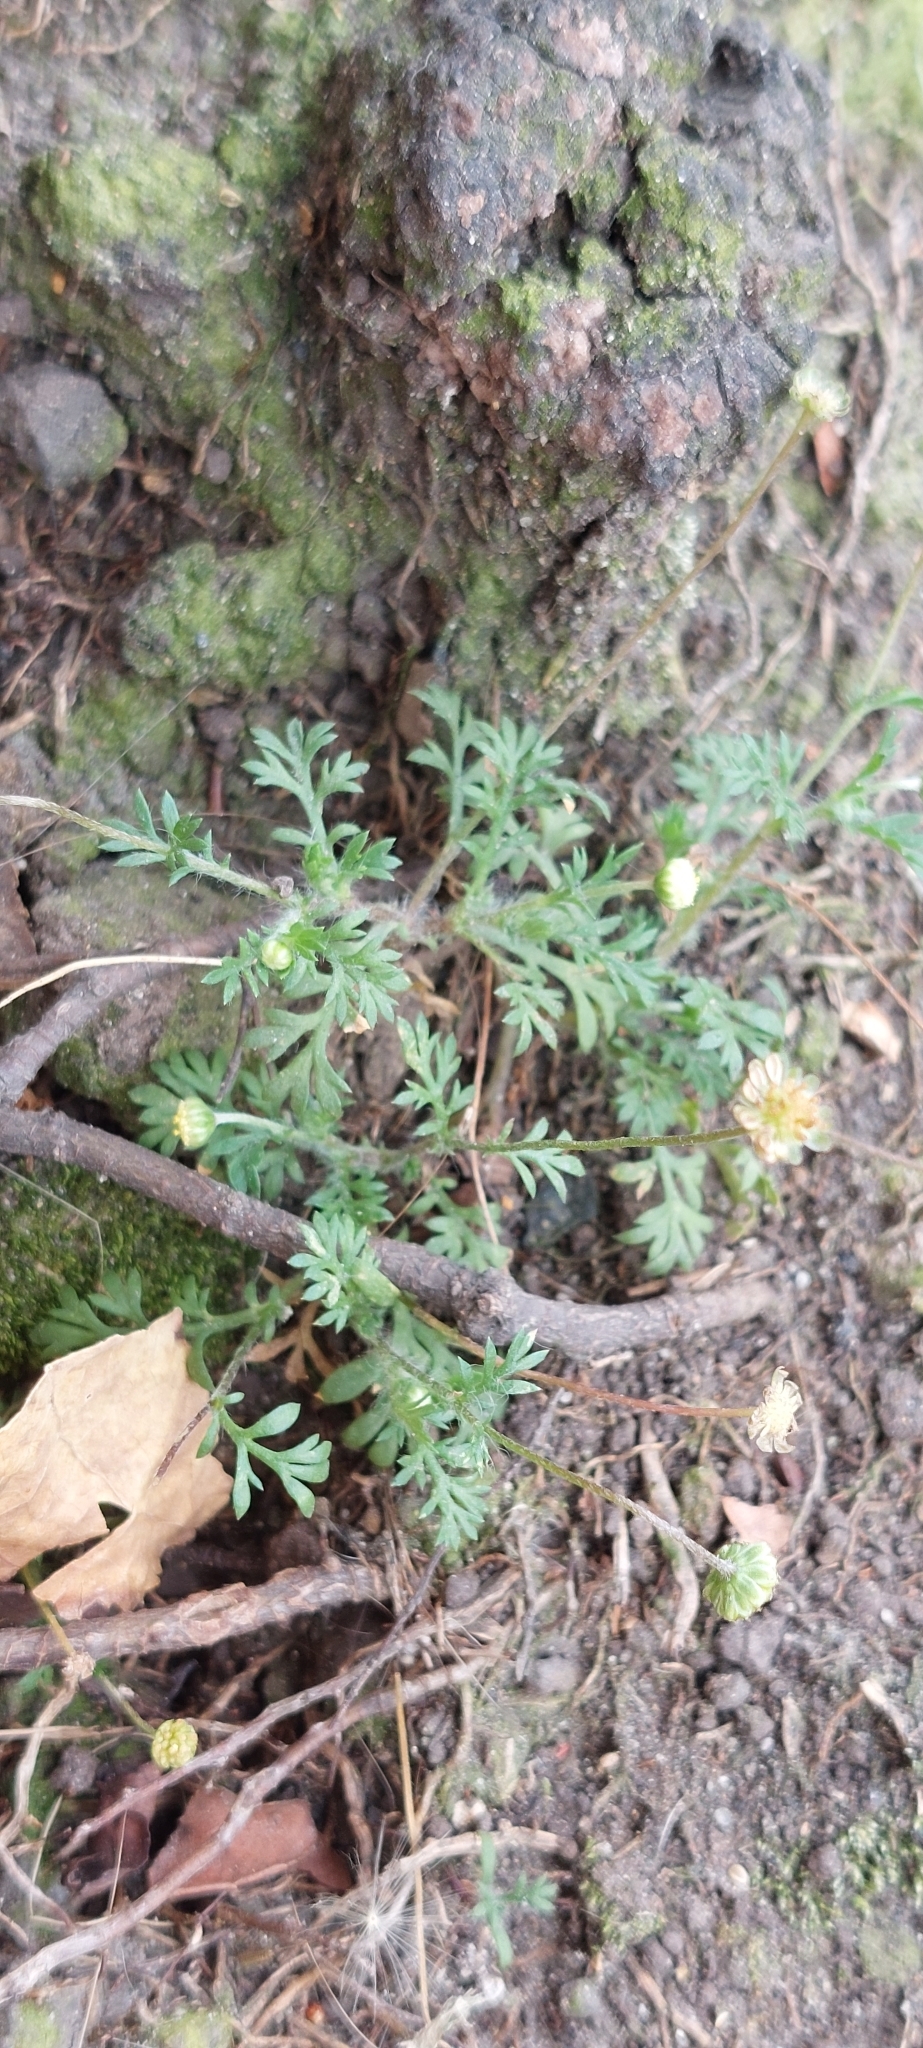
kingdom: Plantae
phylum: Tracheophyta
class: Magnoliopsida
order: Asterales
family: Asteraceae
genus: Cotula
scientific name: Cotula australis
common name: Australian waterbuttons
